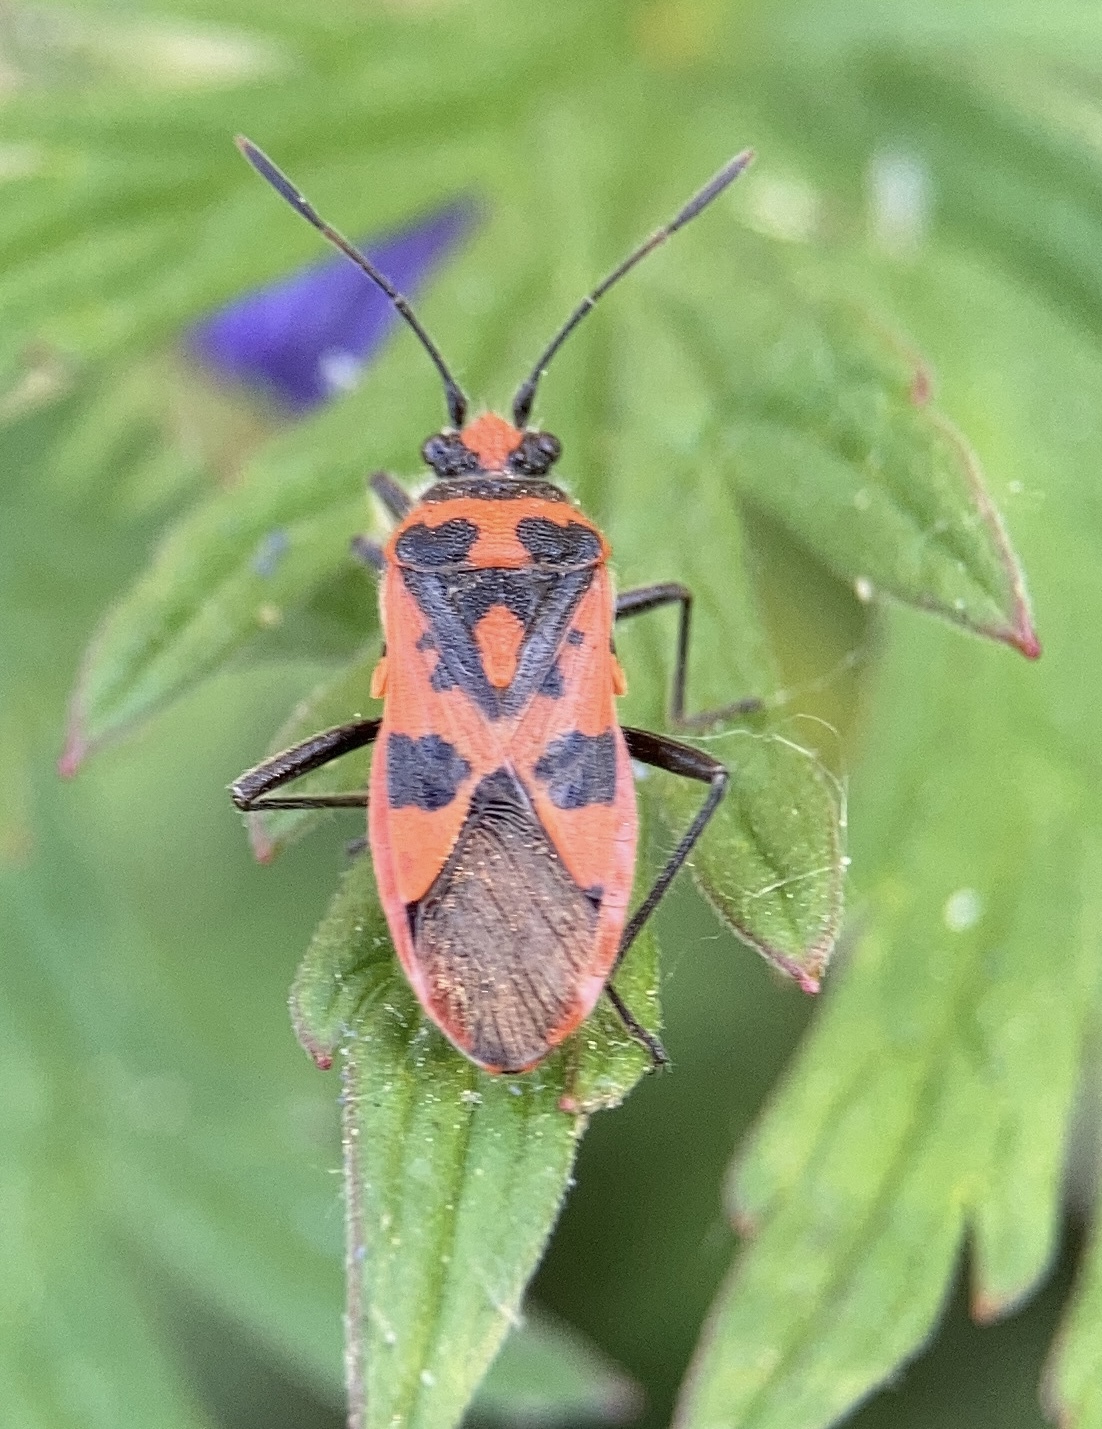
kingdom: Animalia
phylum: Arthropoda
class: Insecta
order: Hemiptera
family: Rhopalidae
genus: Corizus
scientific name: Corizus hyoscyami
